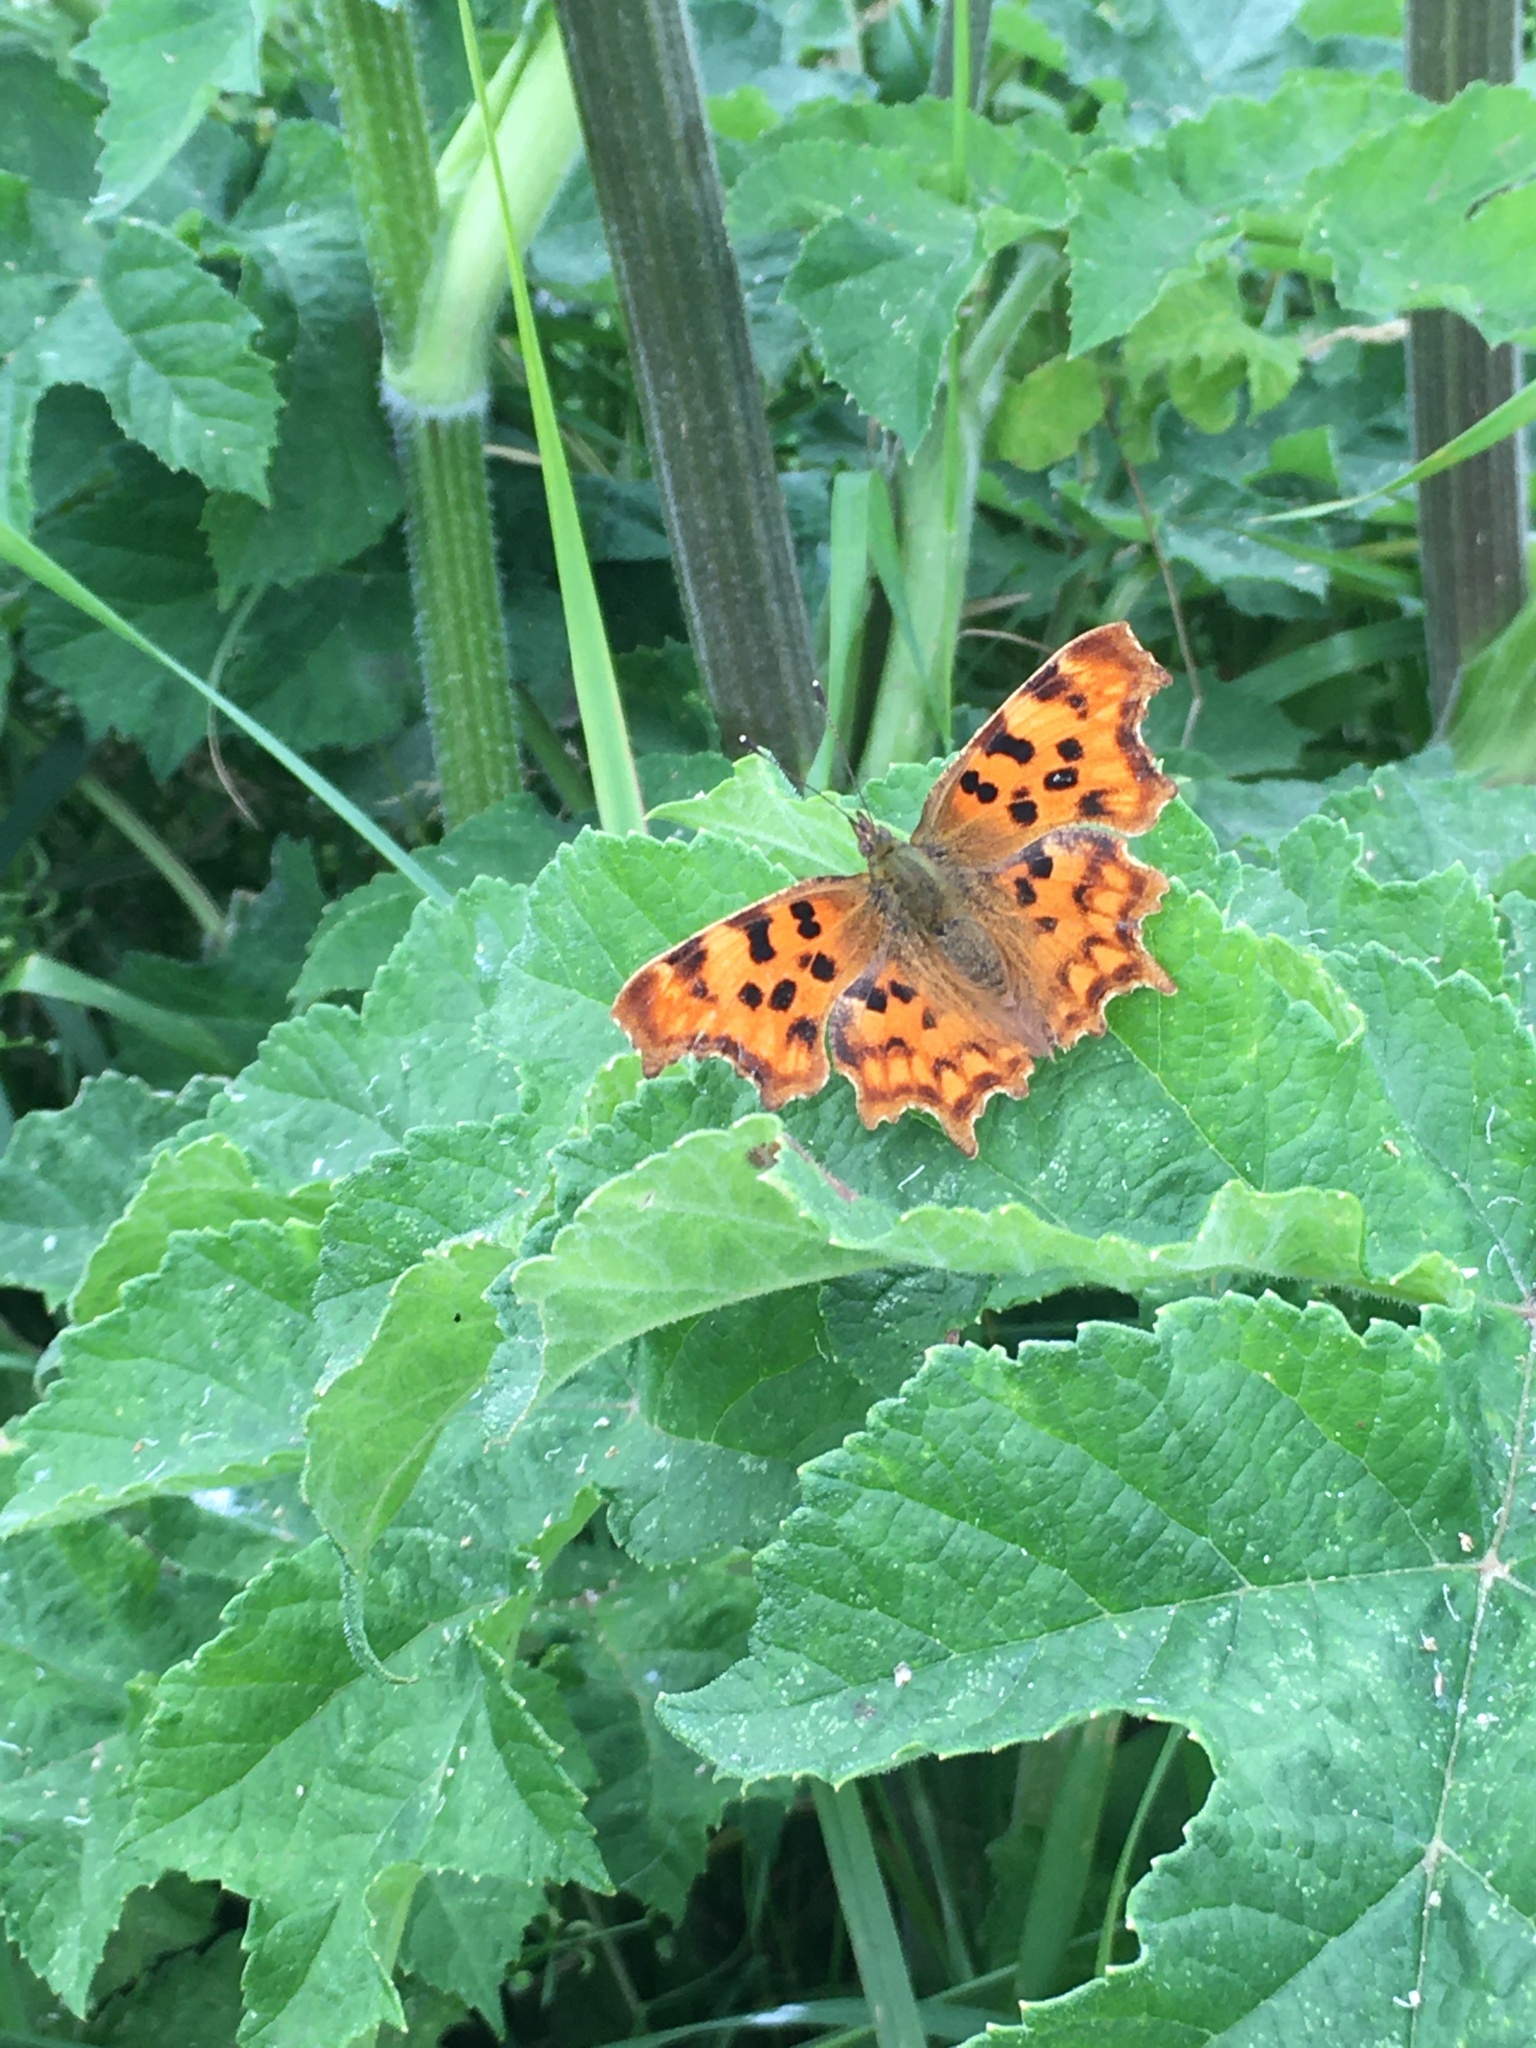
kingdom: Animalia
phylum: Arthropoda
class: Insecta
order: Lepidoptera
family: Nymphalidae
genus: Polygonia
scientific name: Polygonia c-album
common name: Comma
